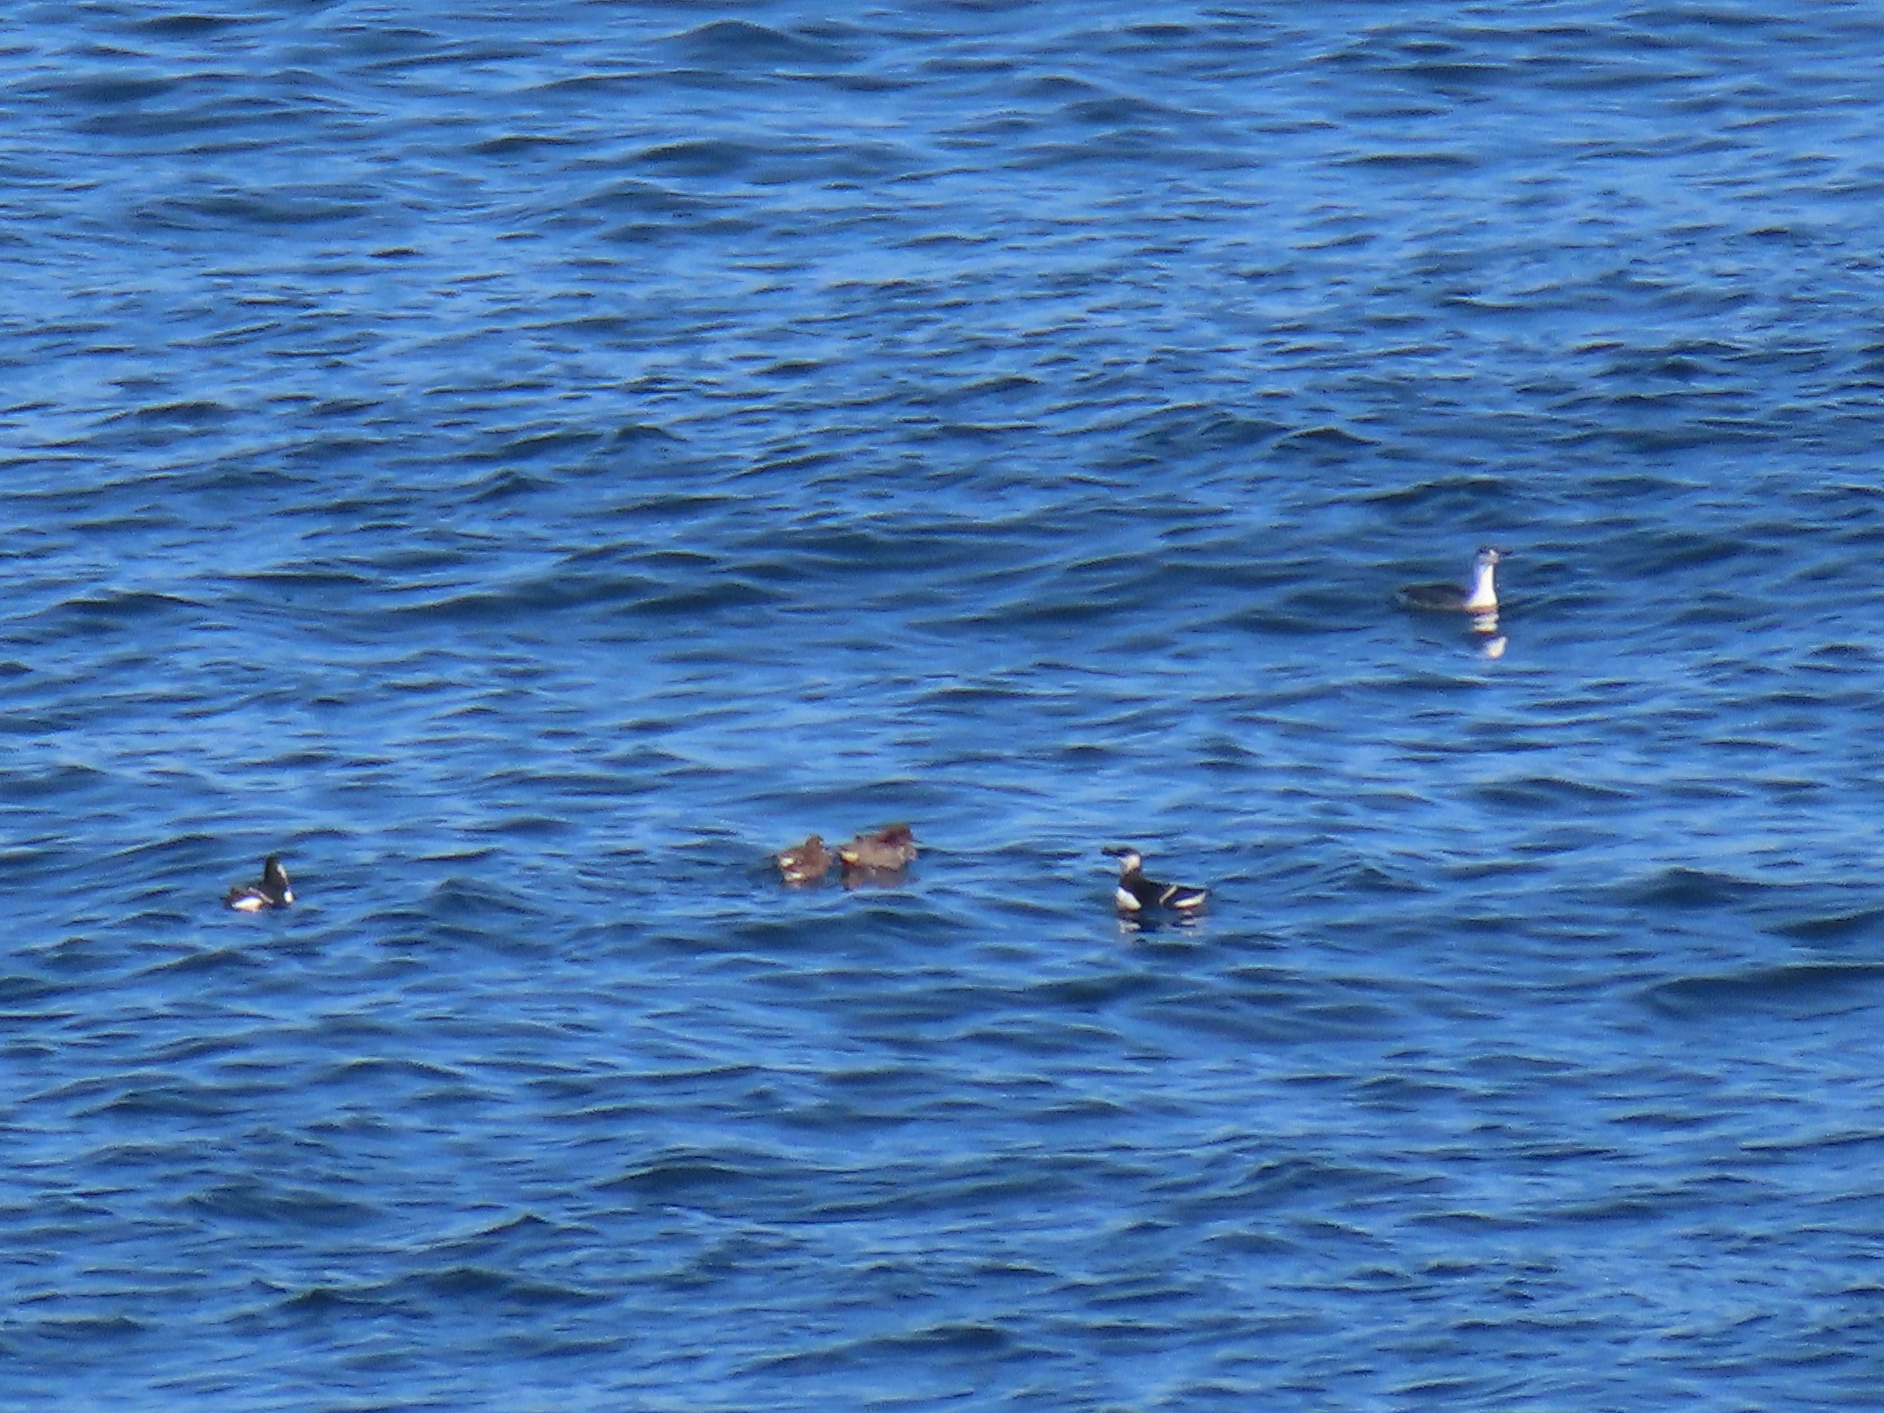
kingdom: Animalia
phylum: Chordata
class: Aves
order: Charadriiformes
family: Alcidae
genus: Alca
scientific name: Alca torda
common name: Razorbill
